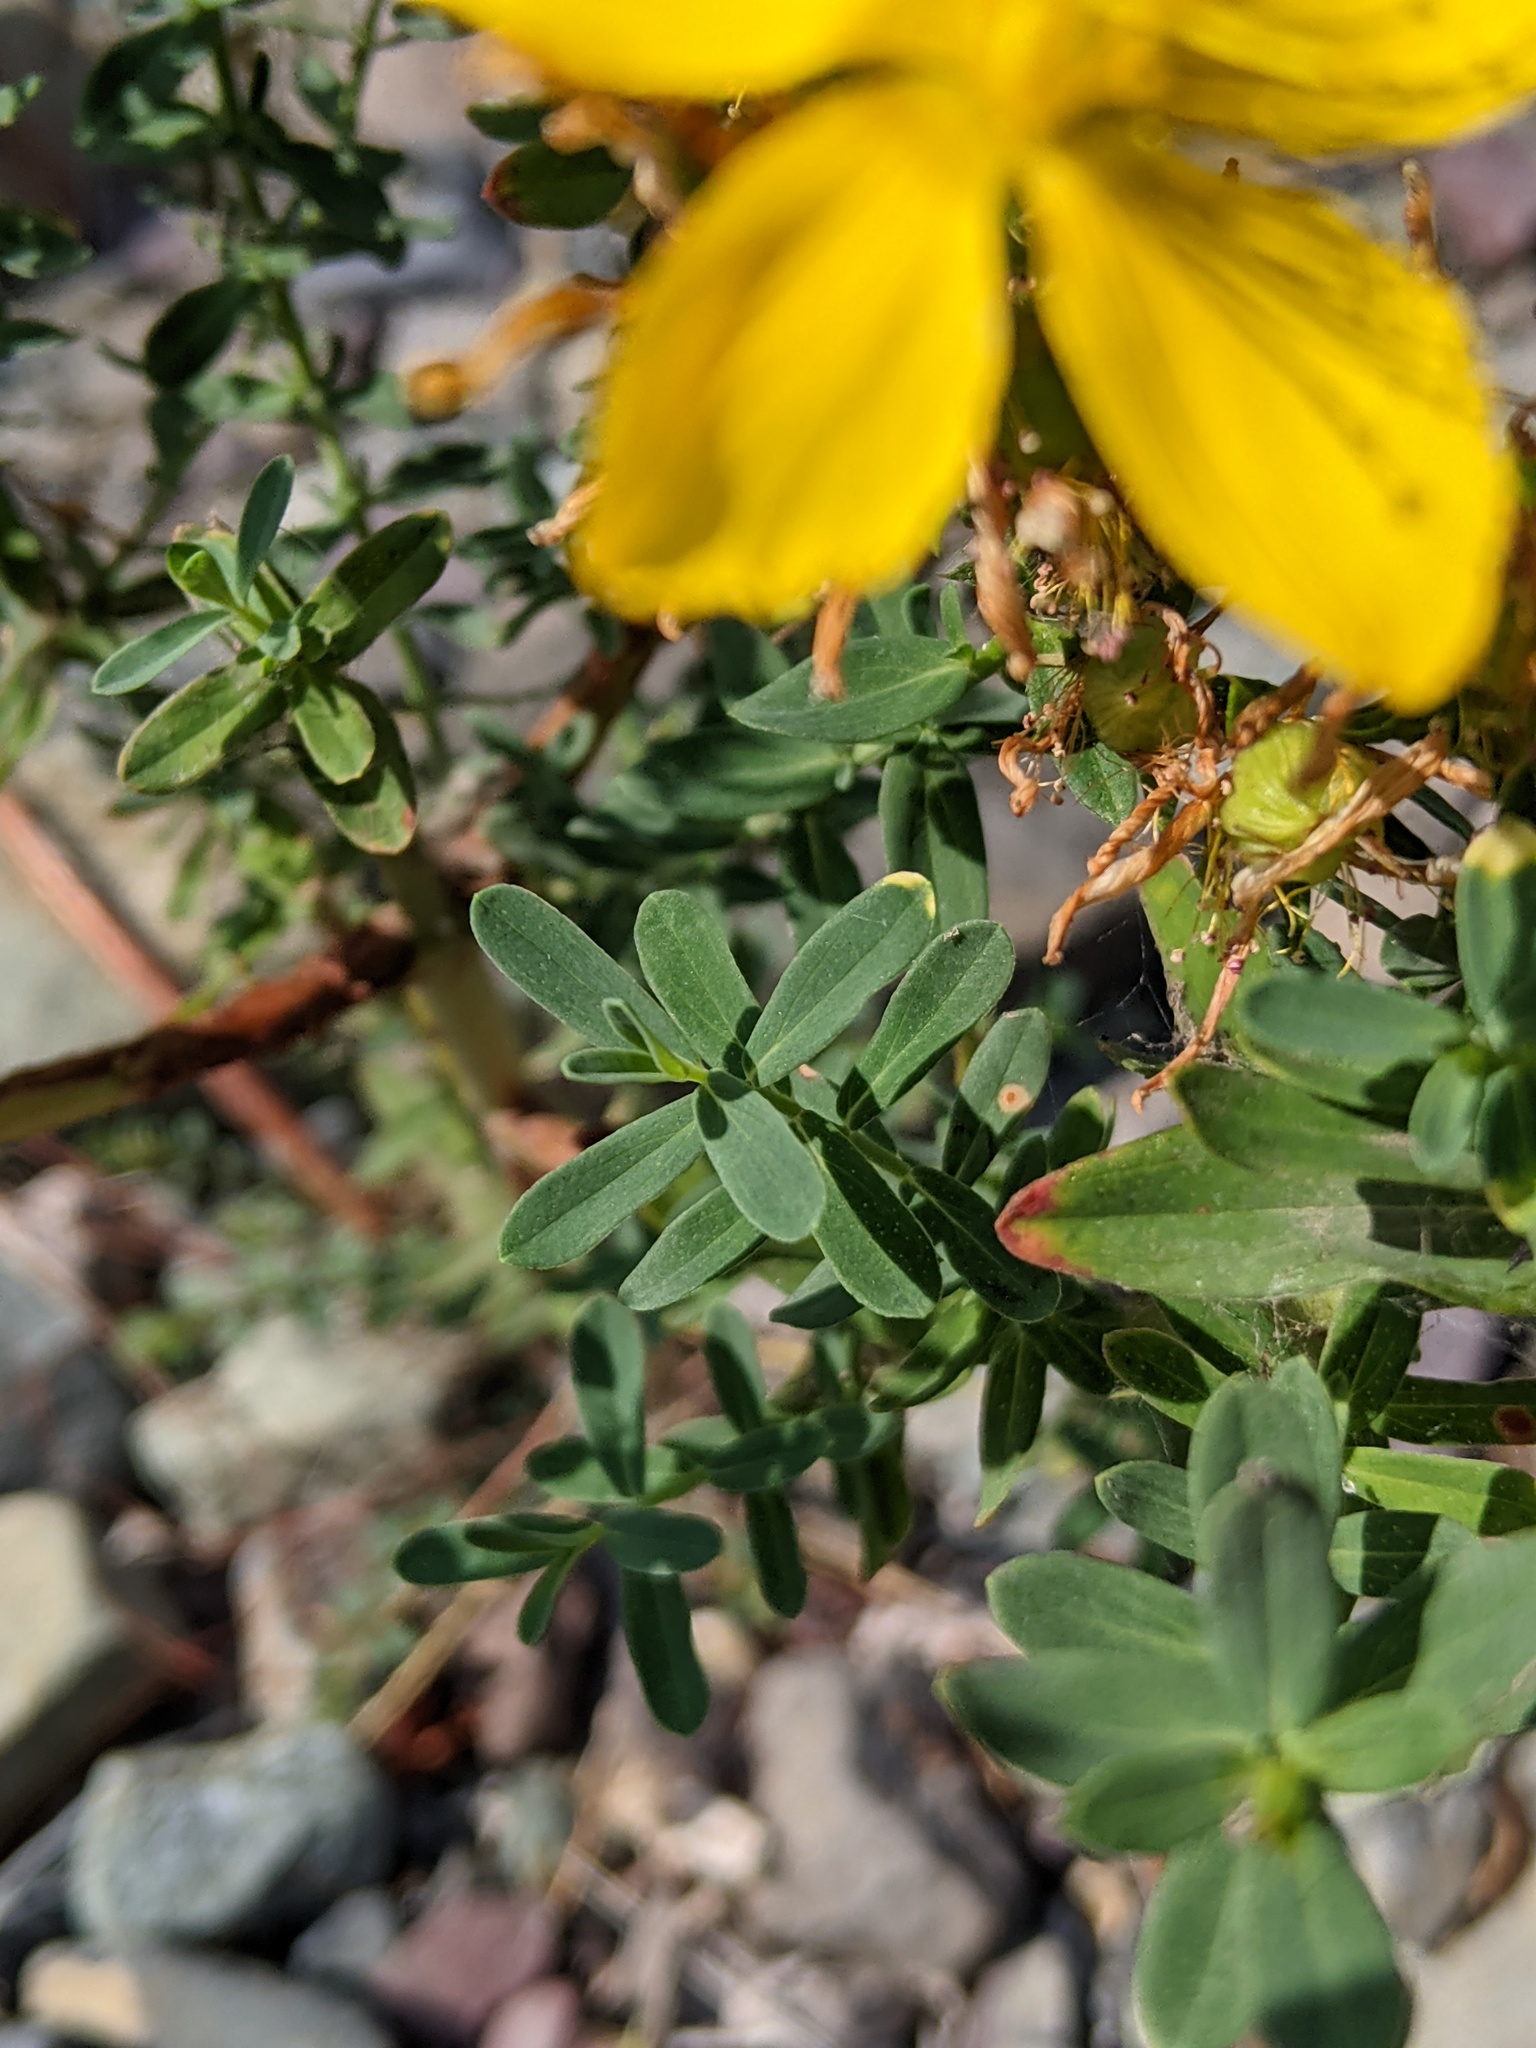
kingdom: Plantae
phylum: Tracheophyta
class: Magnoliopsida
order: Malpighiales
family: Hypericaceae
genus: Hypericum
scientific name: Hypericum perforatum
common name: Common st. johnswort
